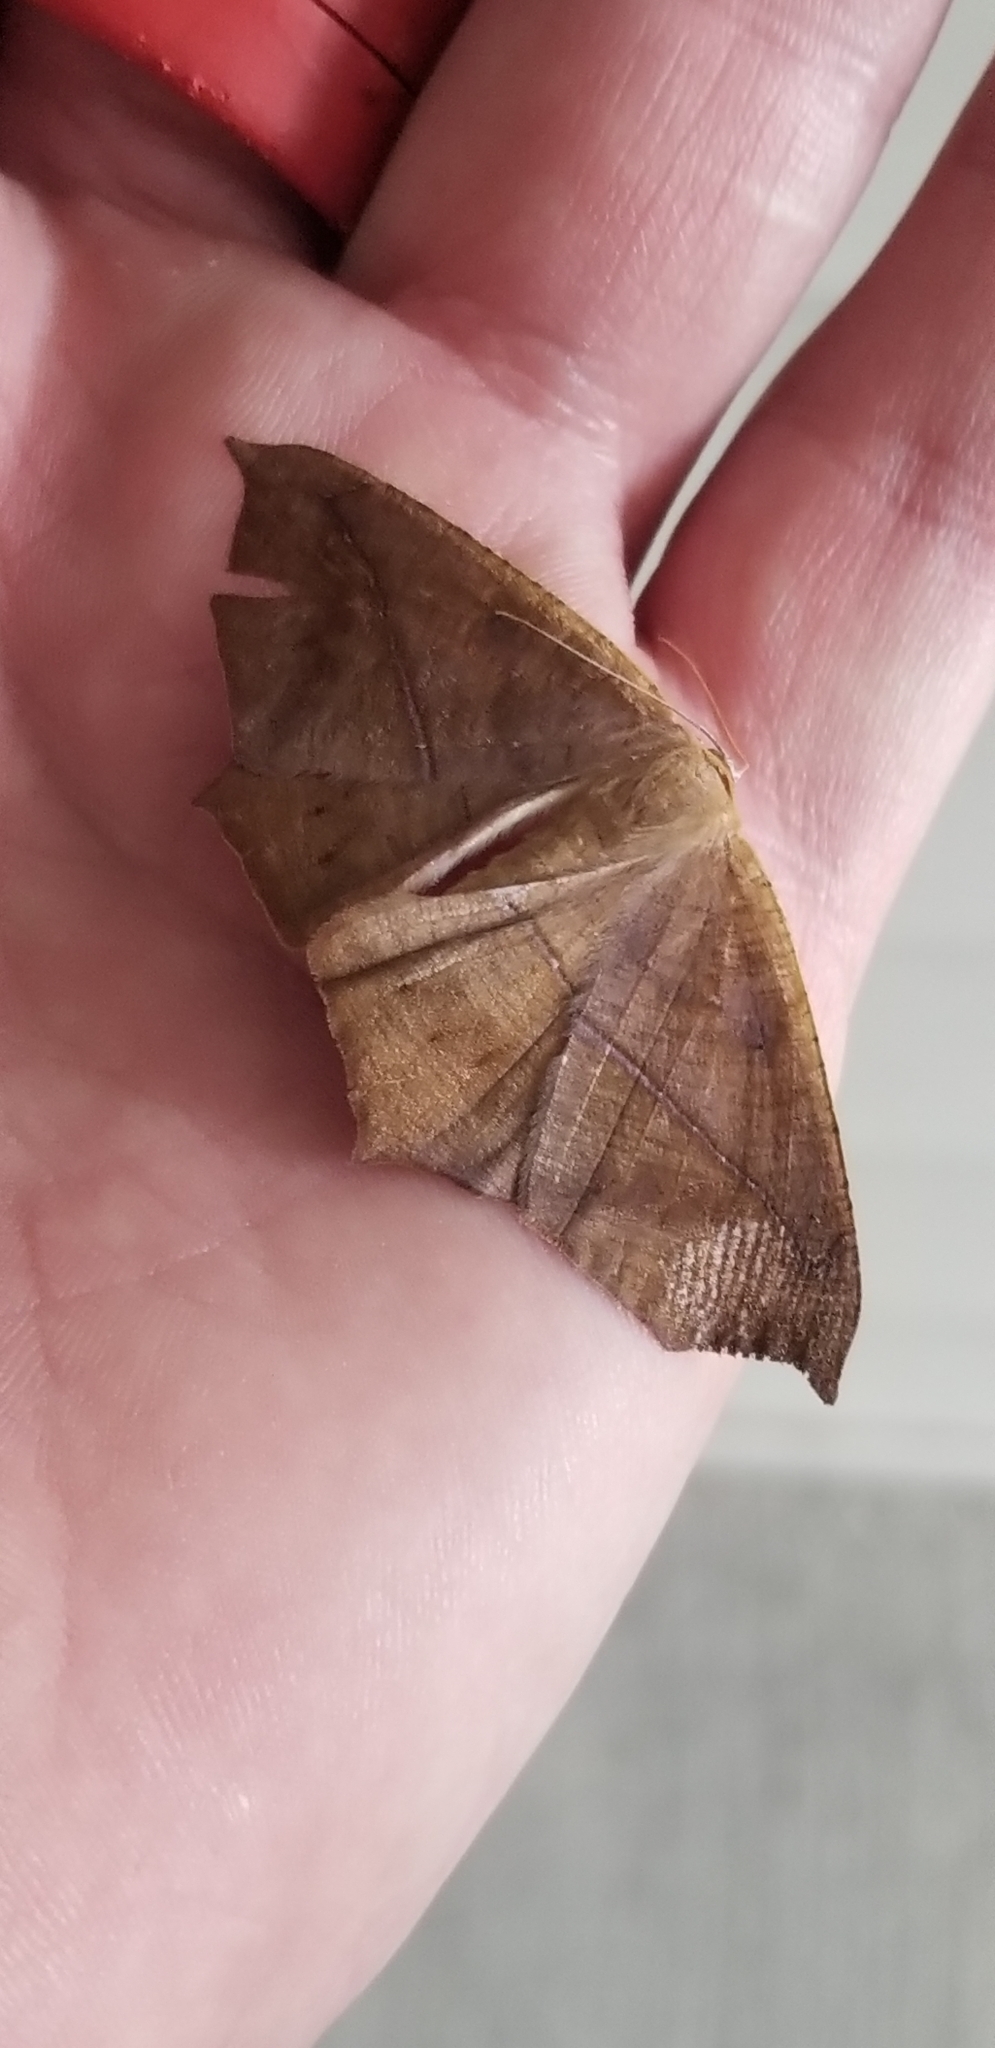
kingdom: Animalia
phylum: Arthropoda
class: Insecta
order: Lepidoptera
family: Geometridae
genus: Prochoerodes
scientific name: Prochoerodes lineola
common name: Large maple spanworm
